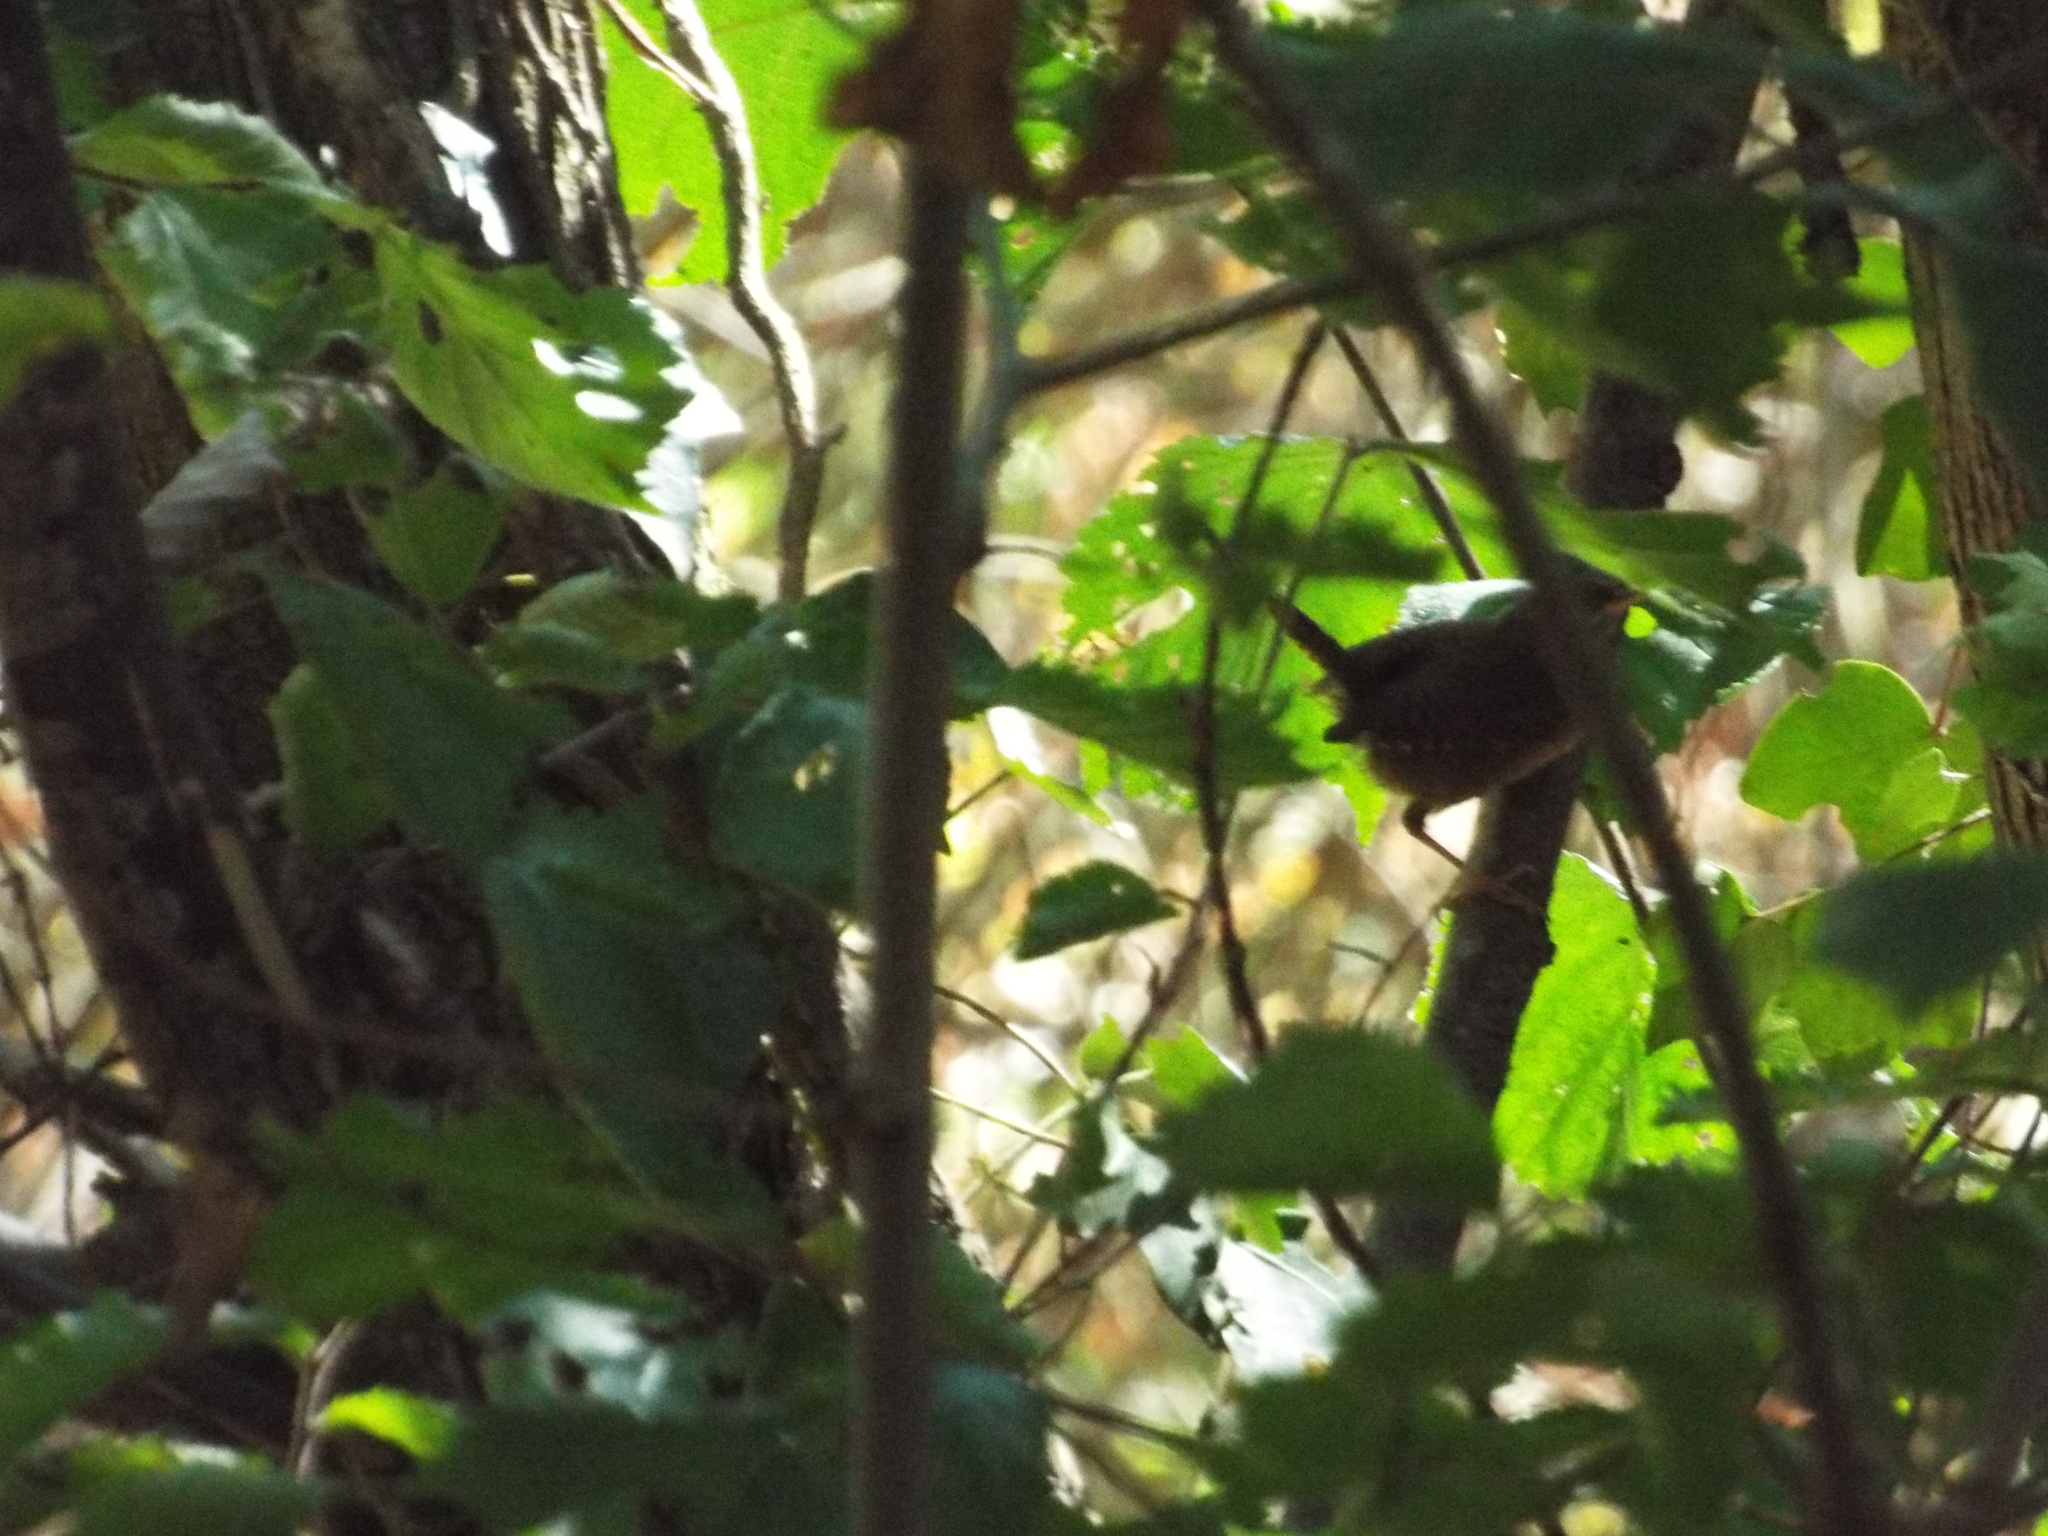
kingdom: Animalia
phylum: Chordata
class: Aves
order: Passeriformes
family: Troglodytidae
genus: Troglodytes
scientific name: Troglodytes troglodytes
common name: Eurasian wren
